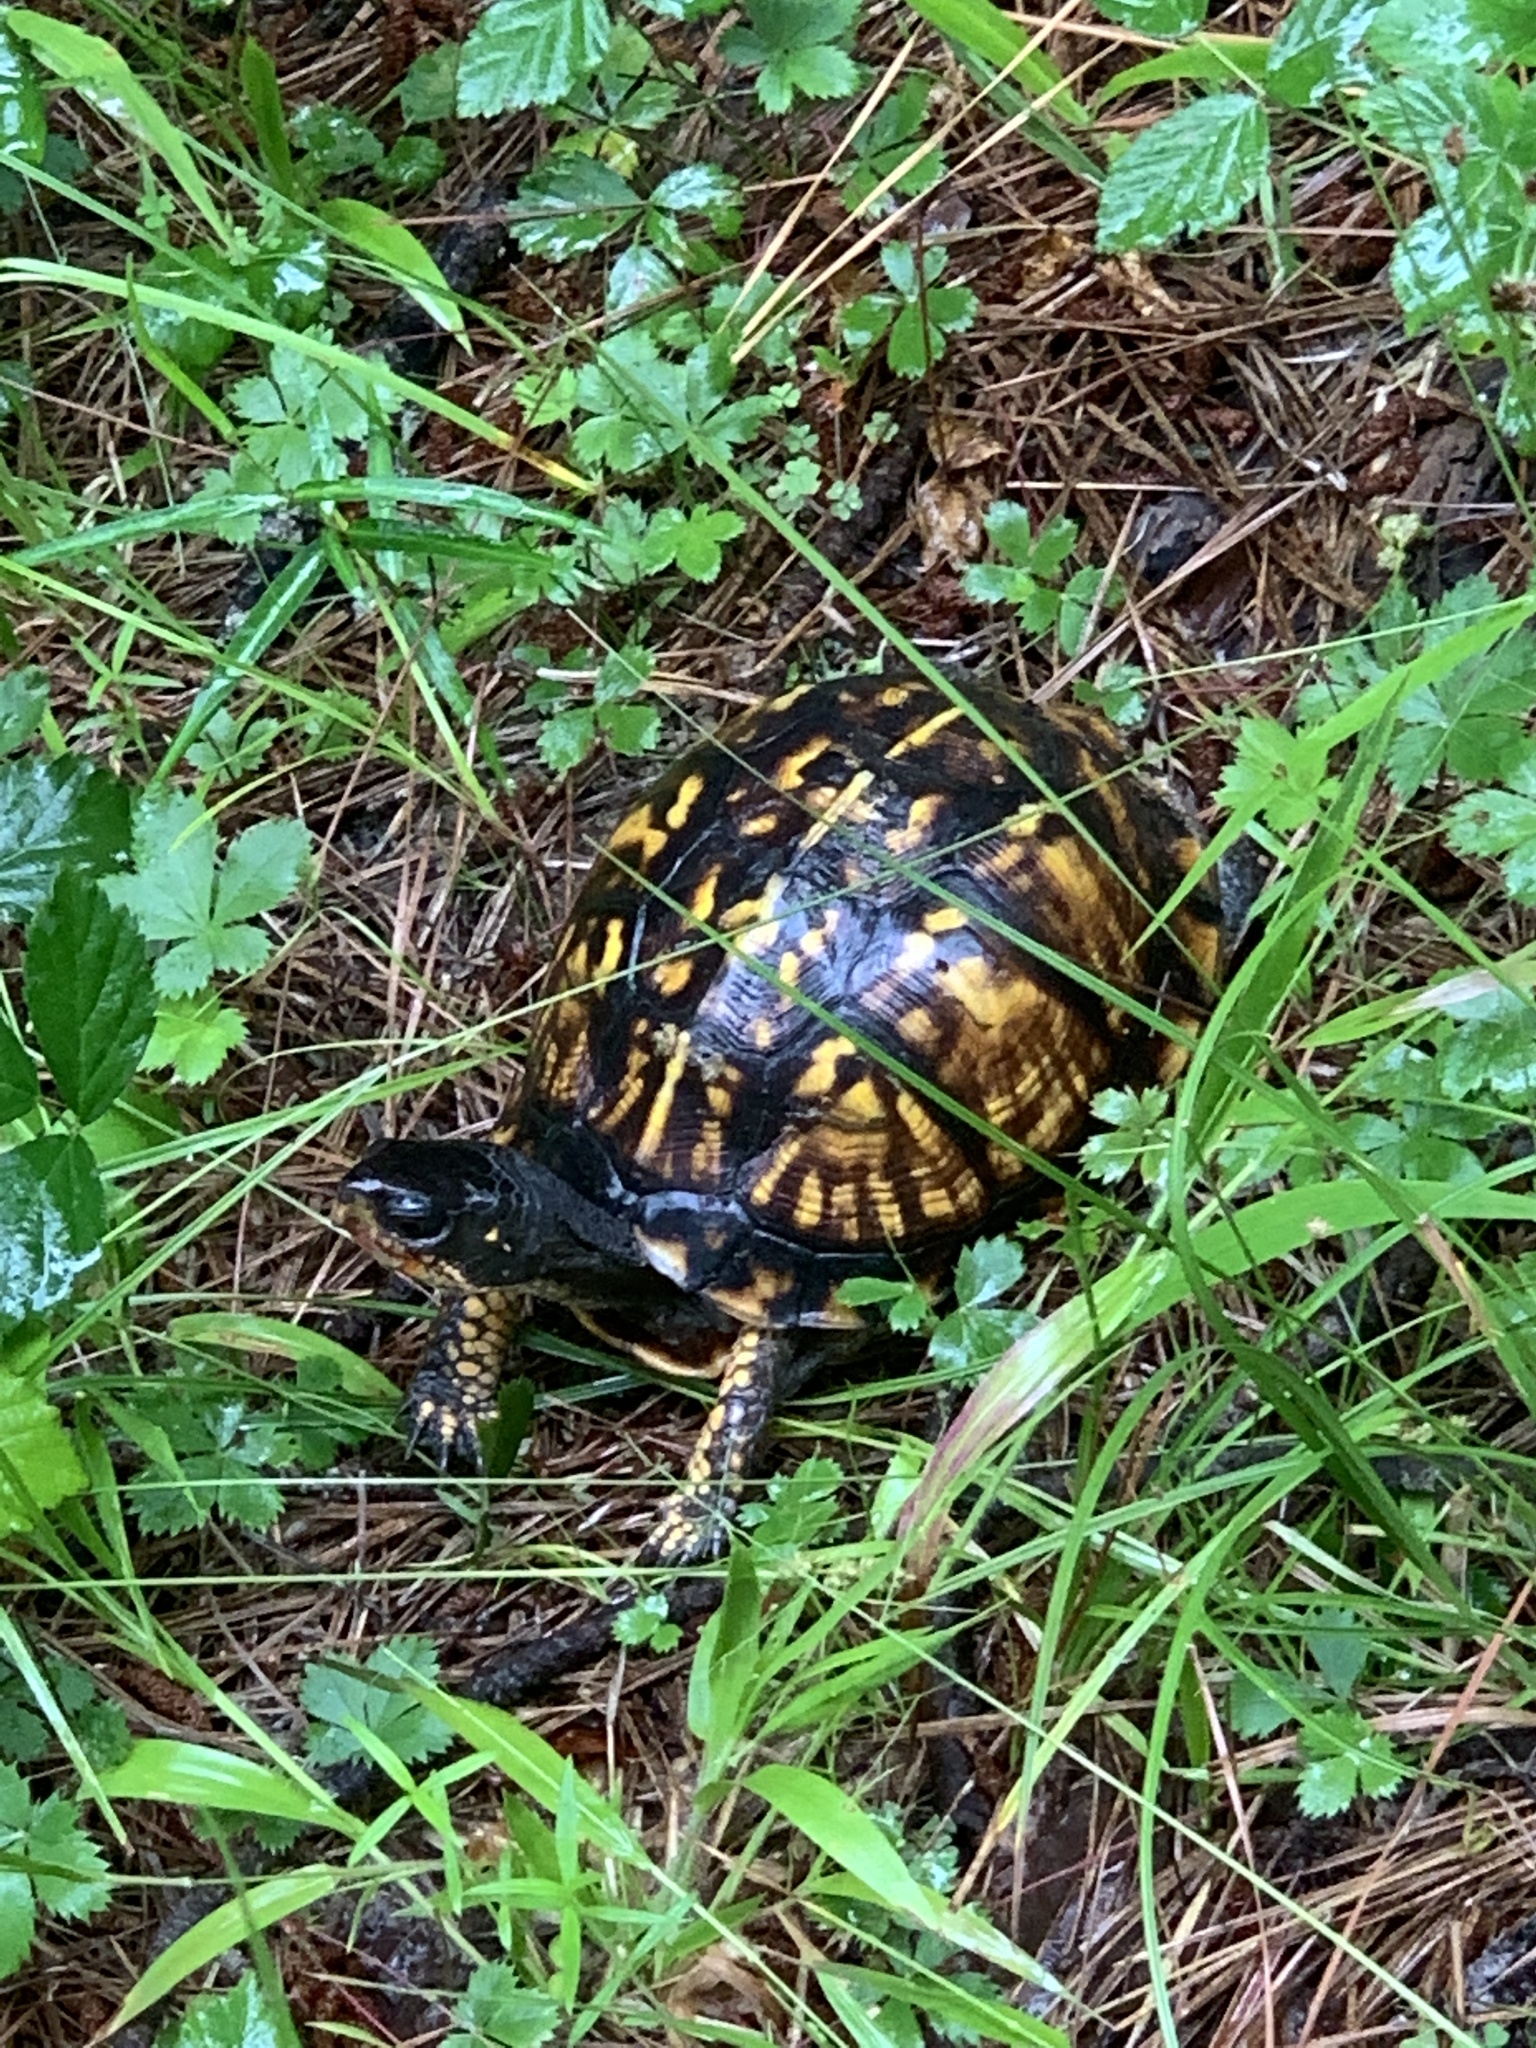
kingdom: Animalia
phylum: Chordata
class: Testudines
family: Emydidae
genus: Terrapene
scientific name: Terrapene carolina
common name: Common box turtle
